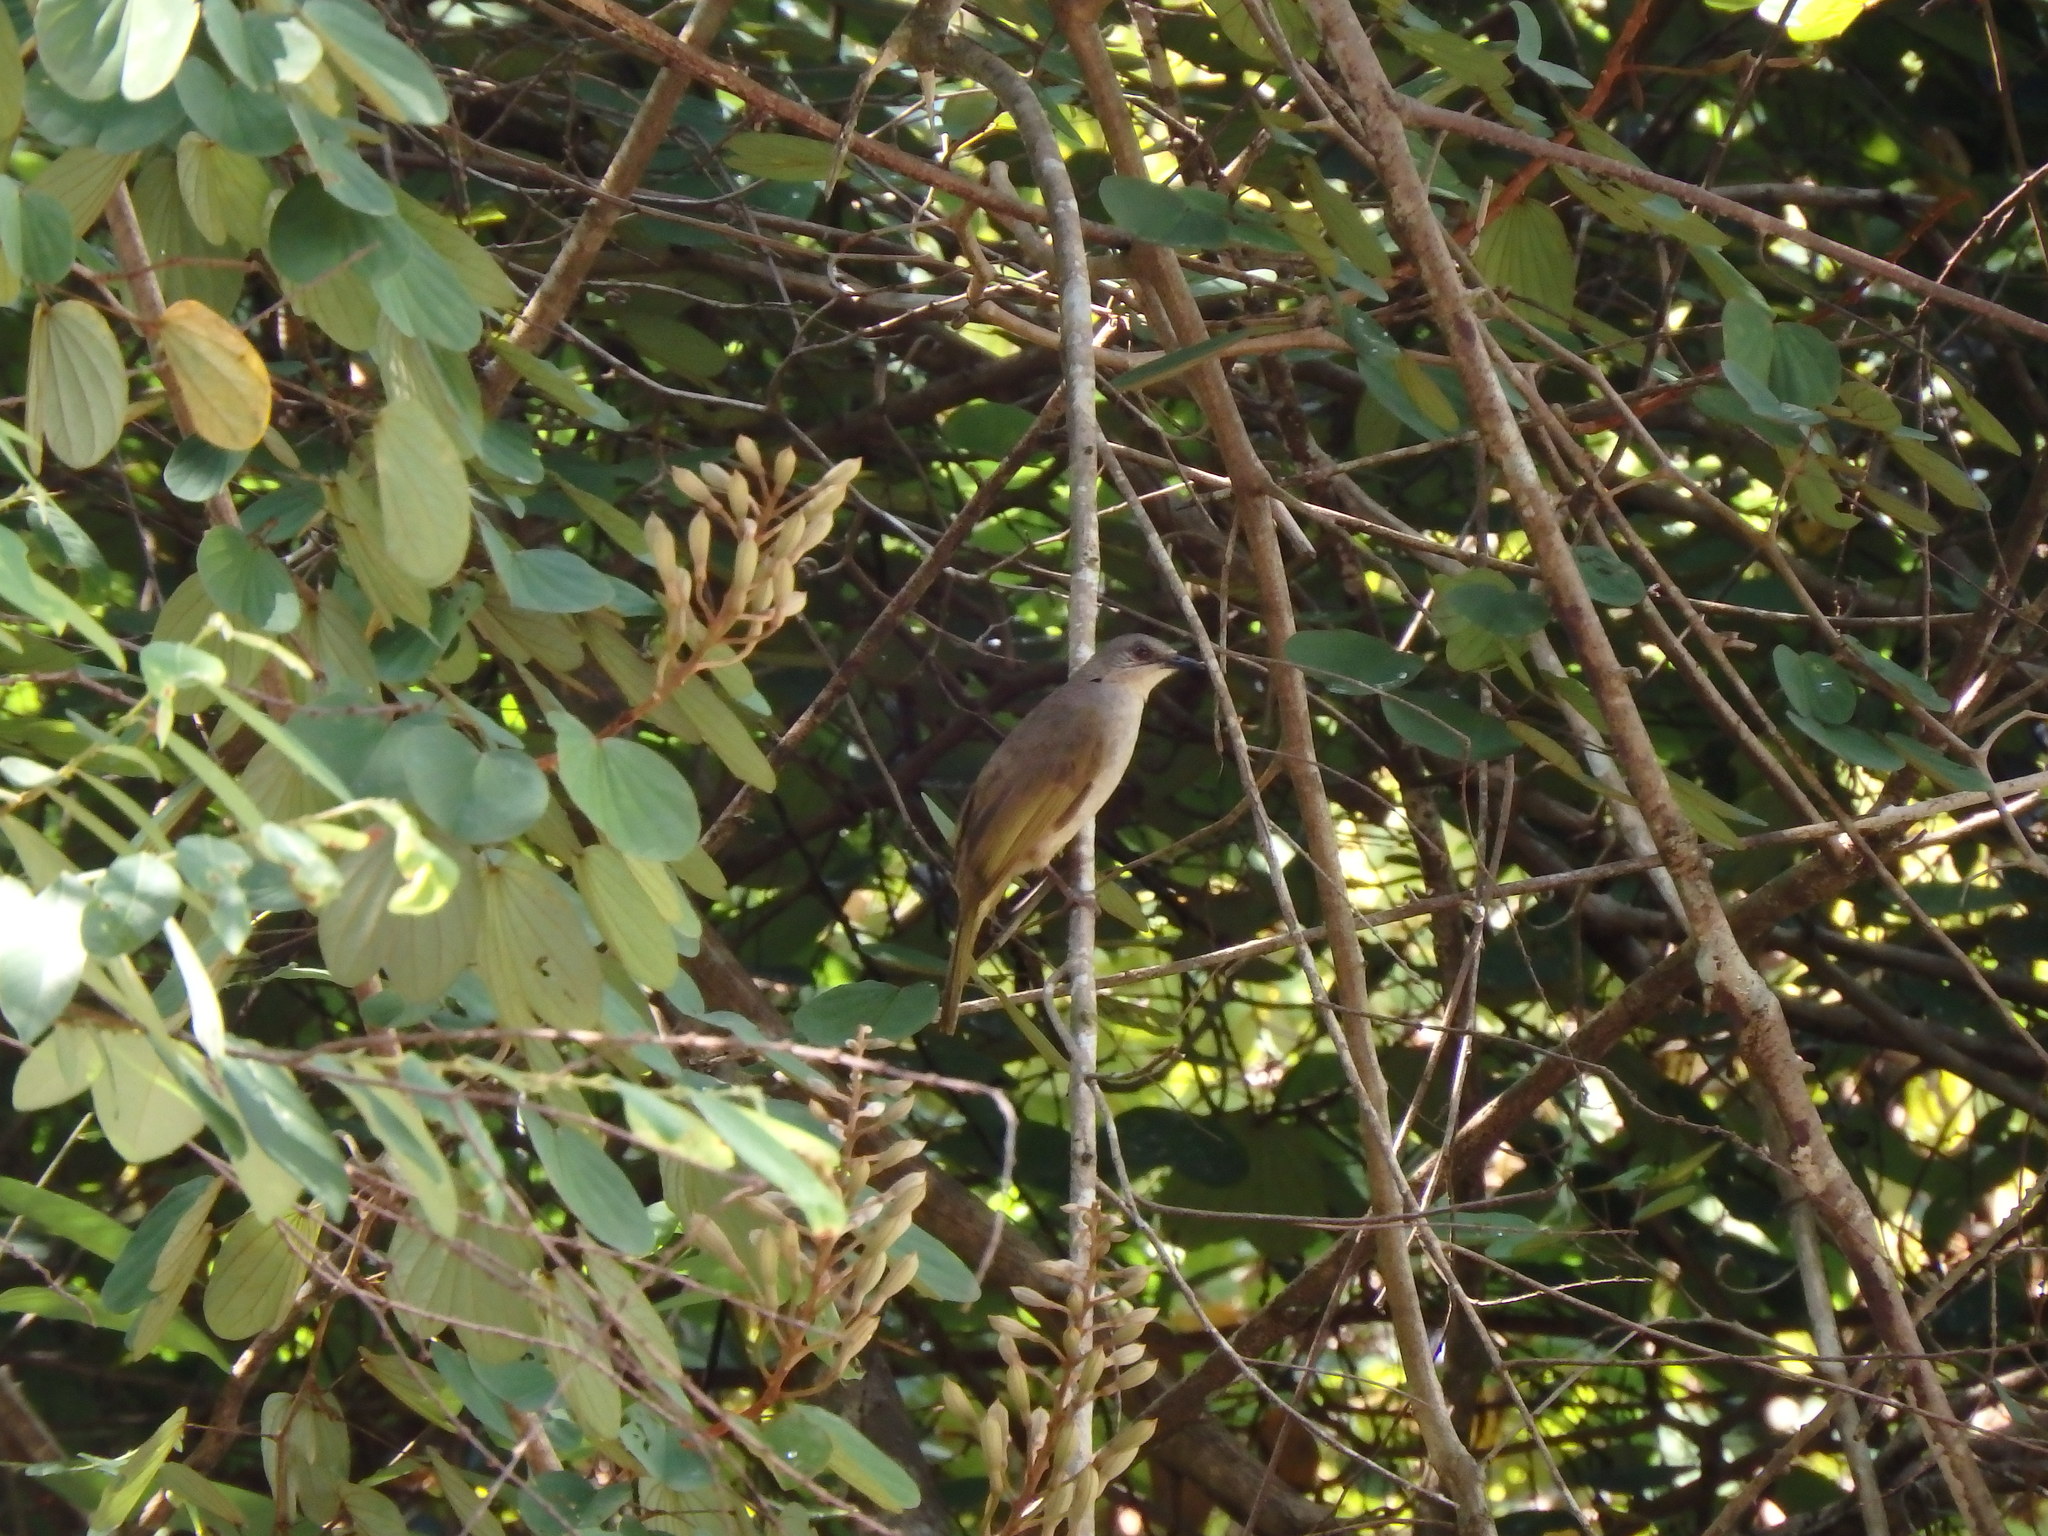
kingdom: Animalia
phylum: Chordata
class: Aves
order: Passeriformes
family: Pycnonotidae
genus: Pycnonotus
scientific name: Pycnonotus plumosus
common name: Olive-winged bulbul
